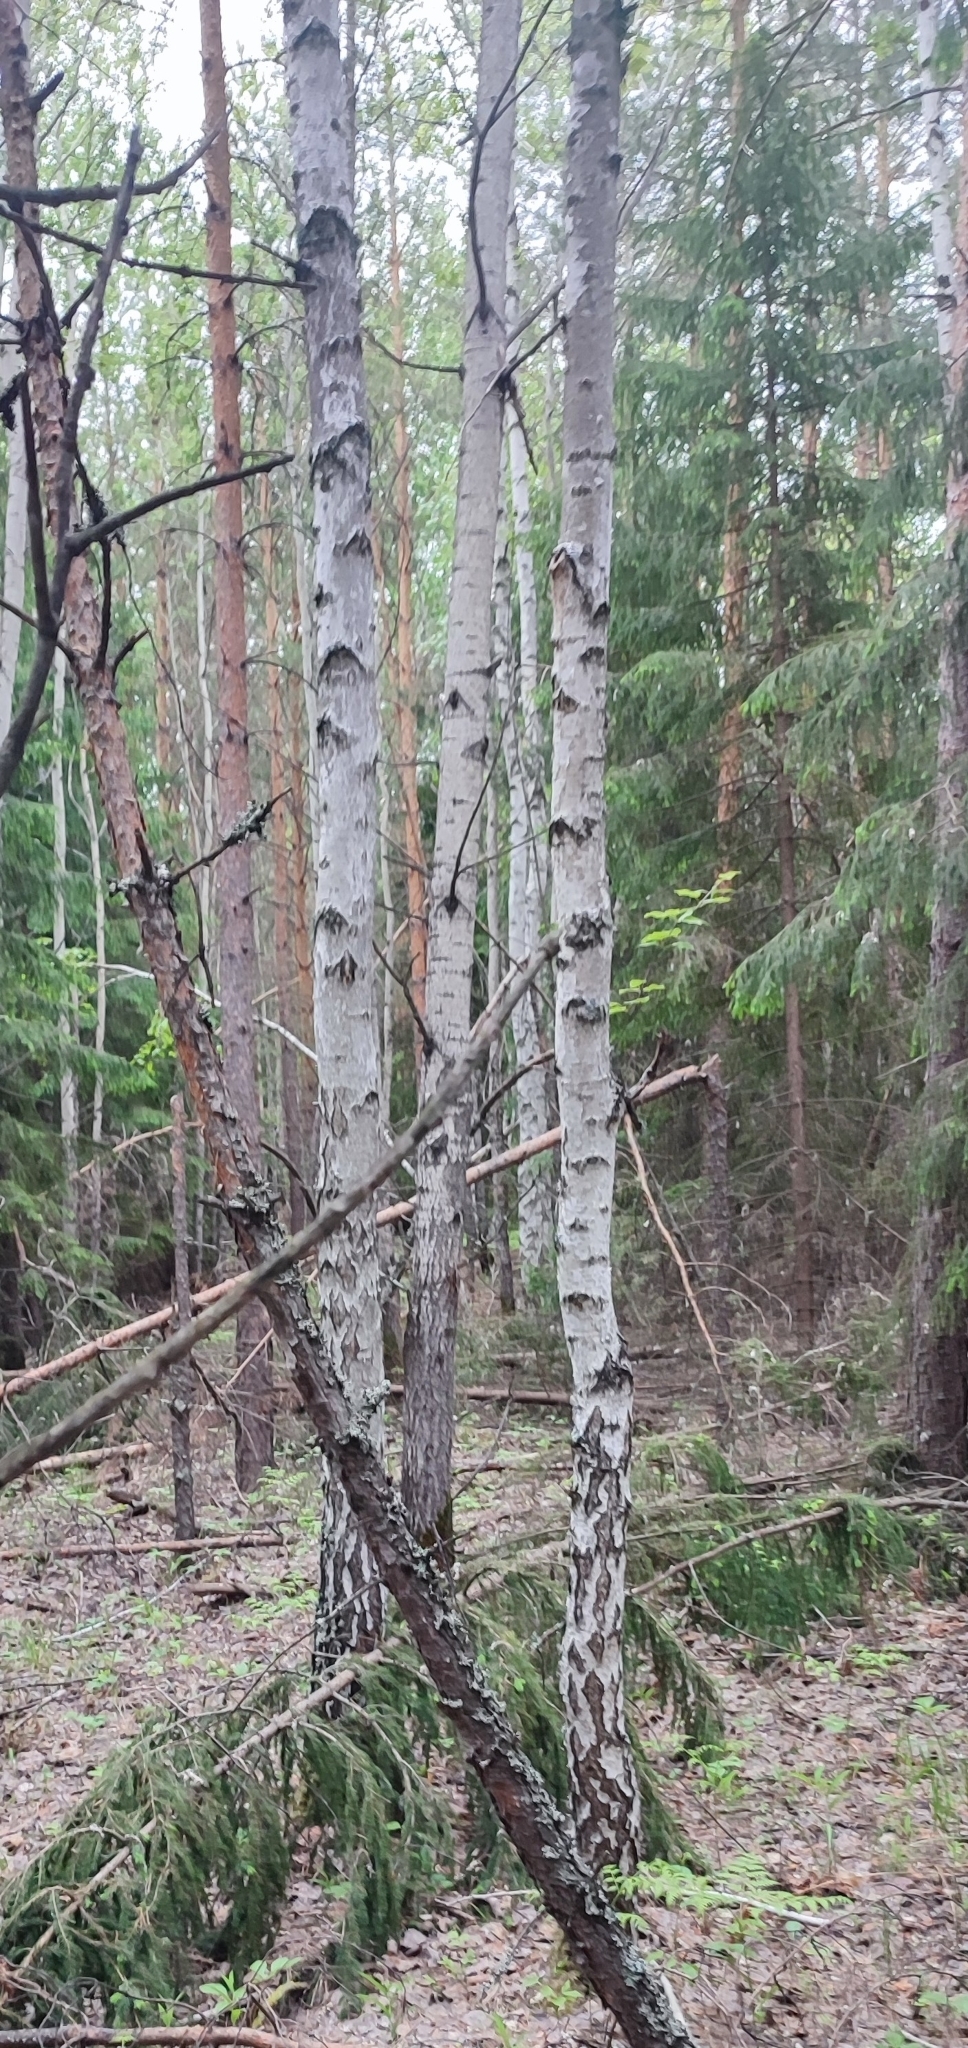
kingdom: Plantae
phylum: Tracheophyta
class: Magnoliopsida
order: Fagales
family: Betulaceae
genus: Betula
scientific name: Betula pendula
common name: Silver birch
